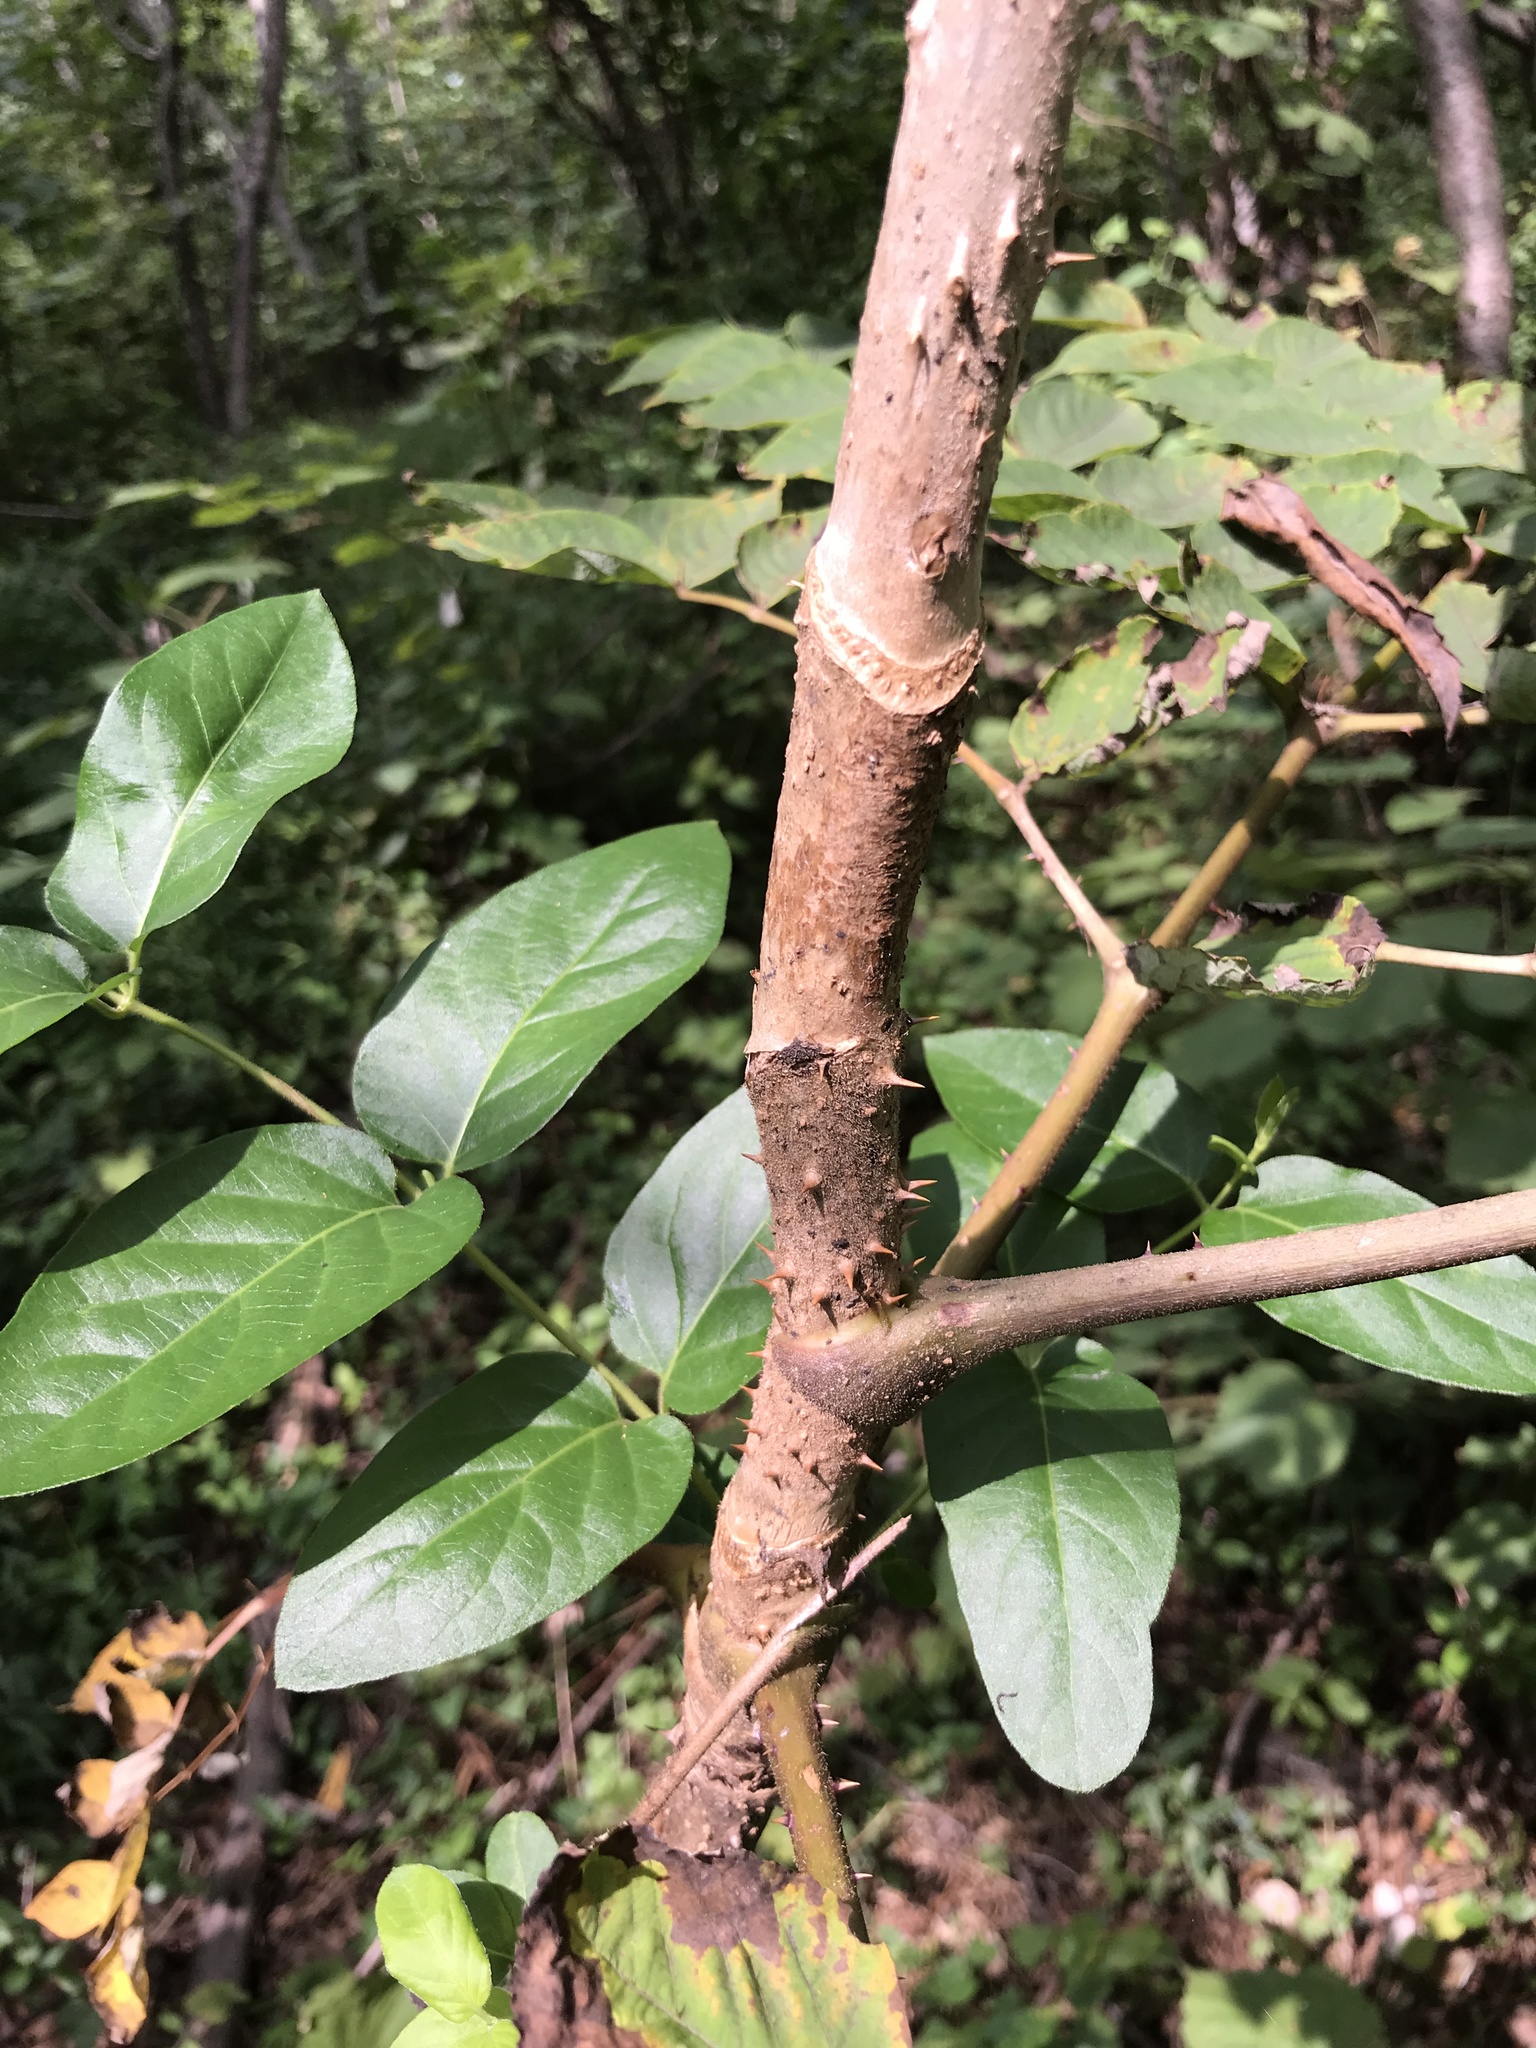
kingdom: Plantae
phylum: Tracheophyta
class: Magnoliopsida
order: Apiales
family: Araliaceae
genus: Aralia
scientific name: Aralia elata
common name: Japanese angelica-tree
